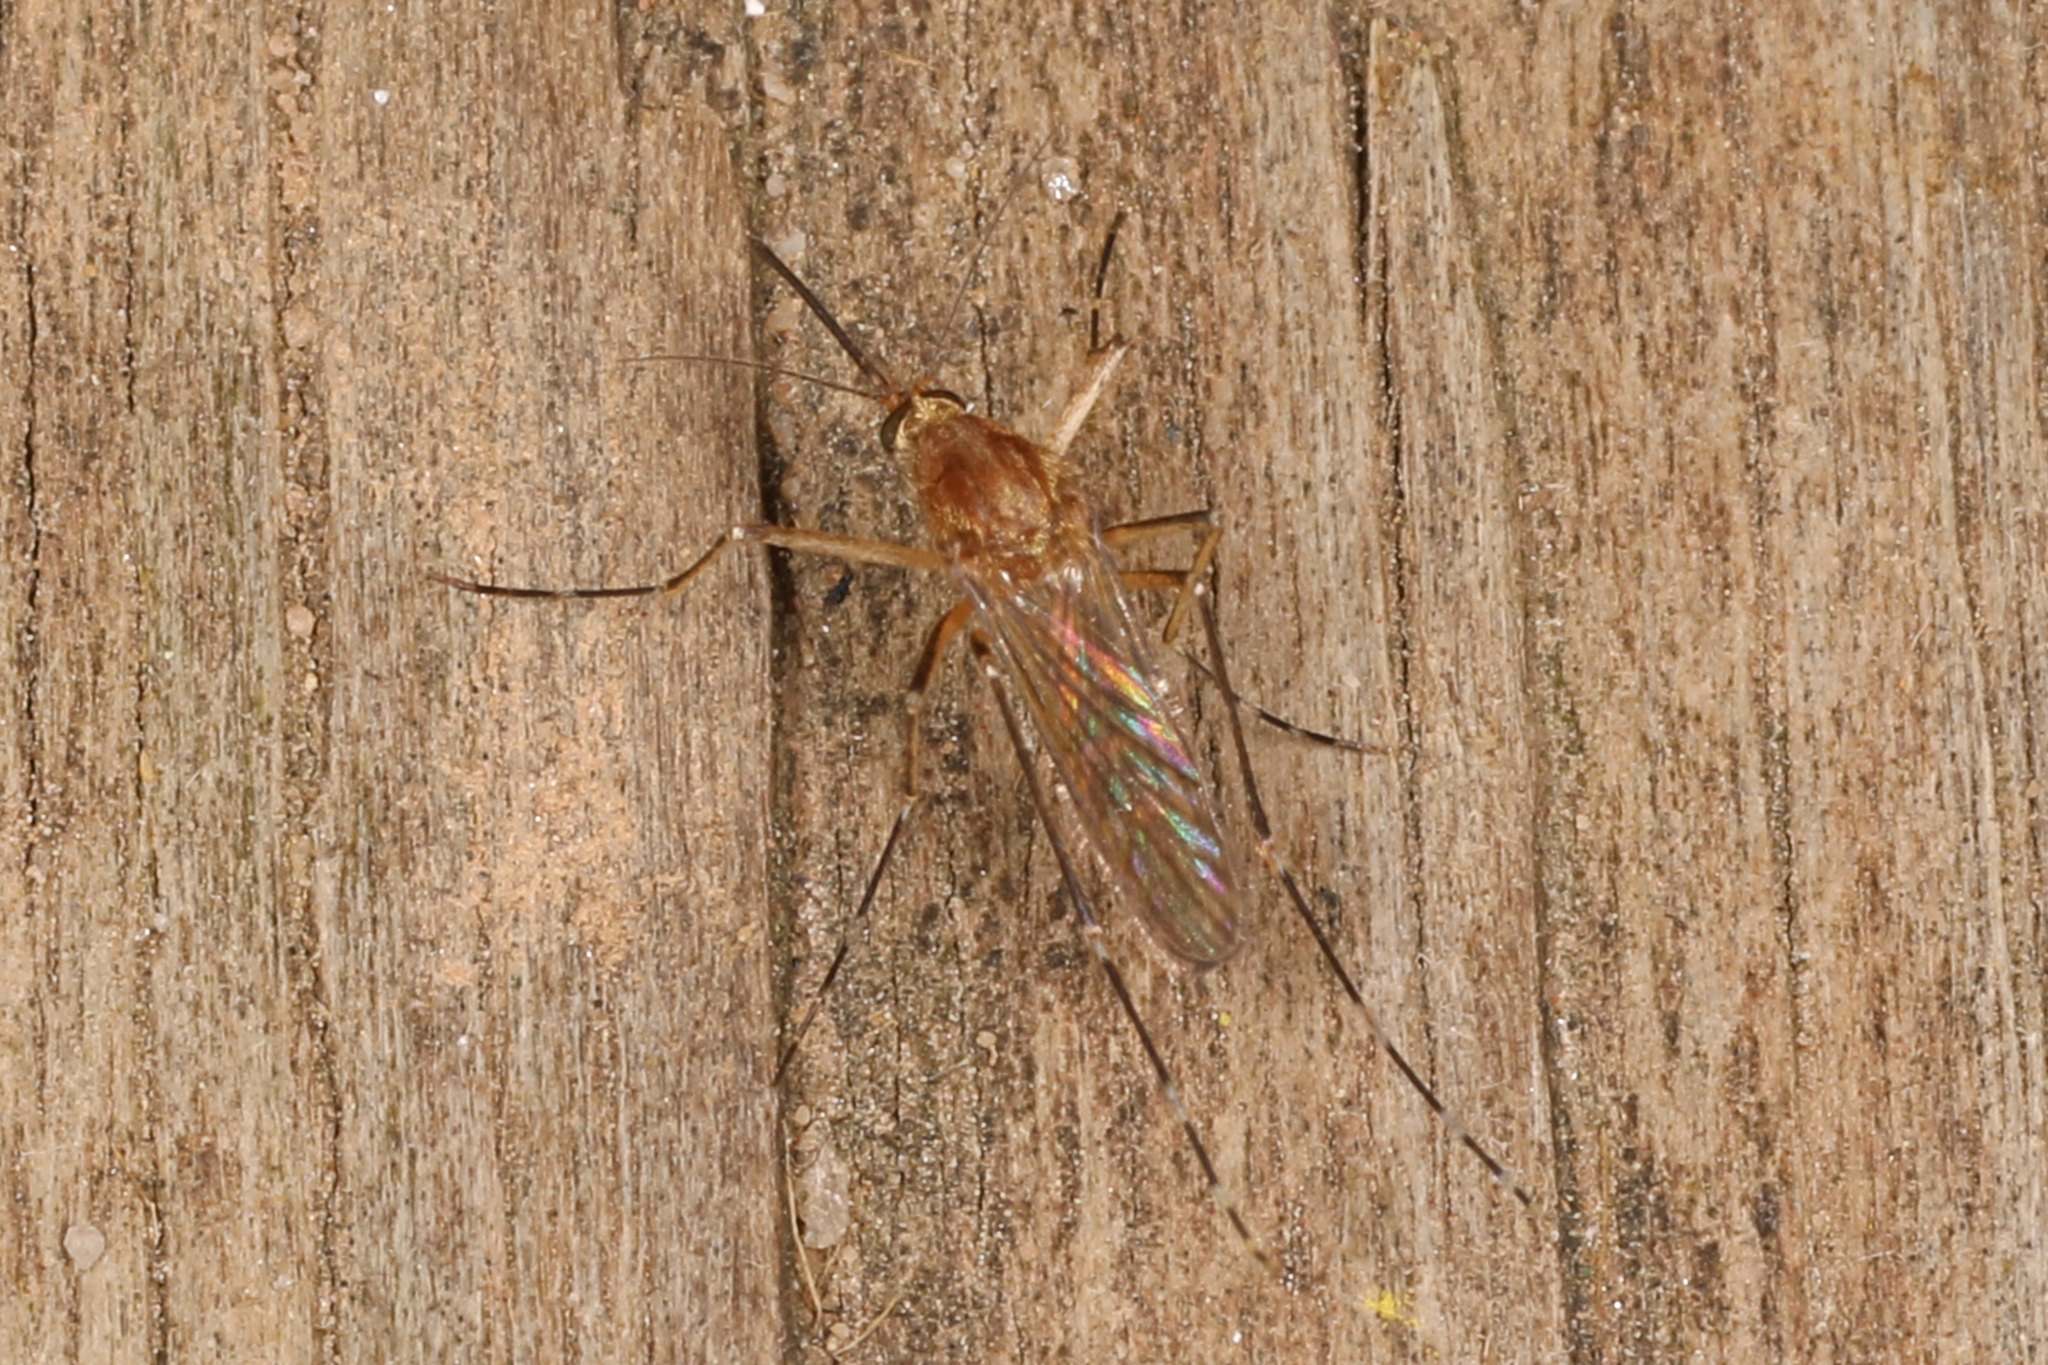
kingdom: Animalia
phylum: Arthropoda
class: Insecta
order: Diptera
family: Culicidae
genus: Aedes
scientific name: Aedes canadensis
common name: Woodland pool mosquito
